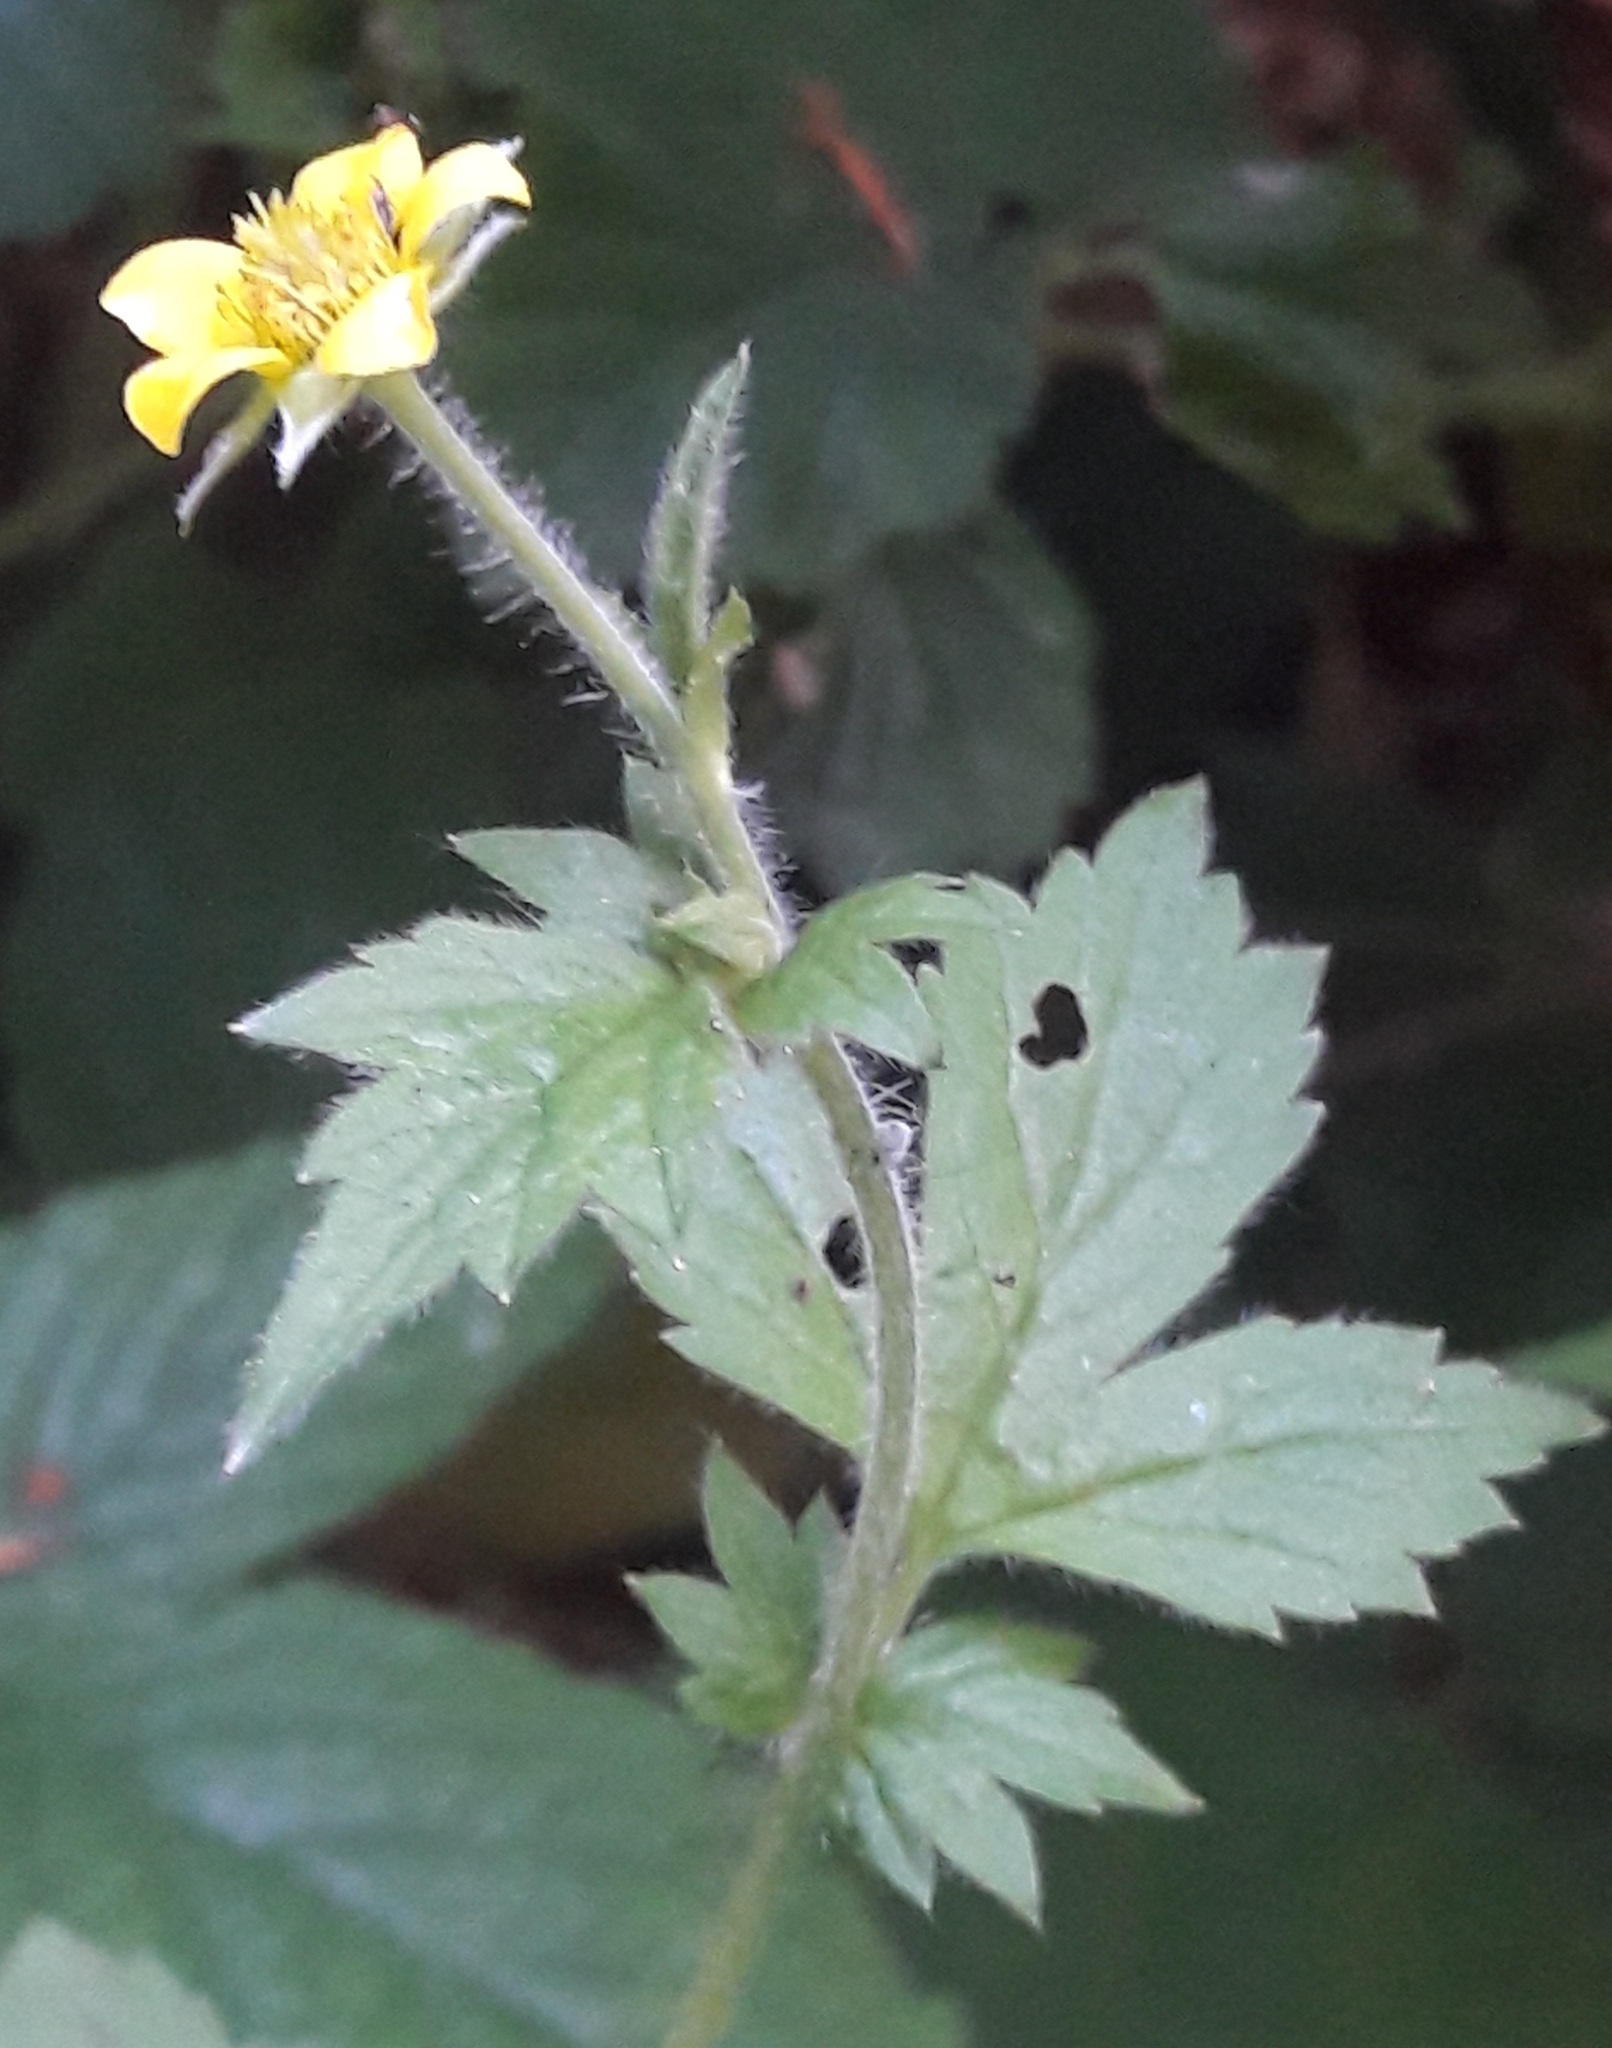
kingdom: Plantae
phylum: Tracheophyta
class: Magnoliopsida
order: Rosales
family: Rosaceae
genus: Geum
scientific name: Geum urbanum
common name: Wood avens
